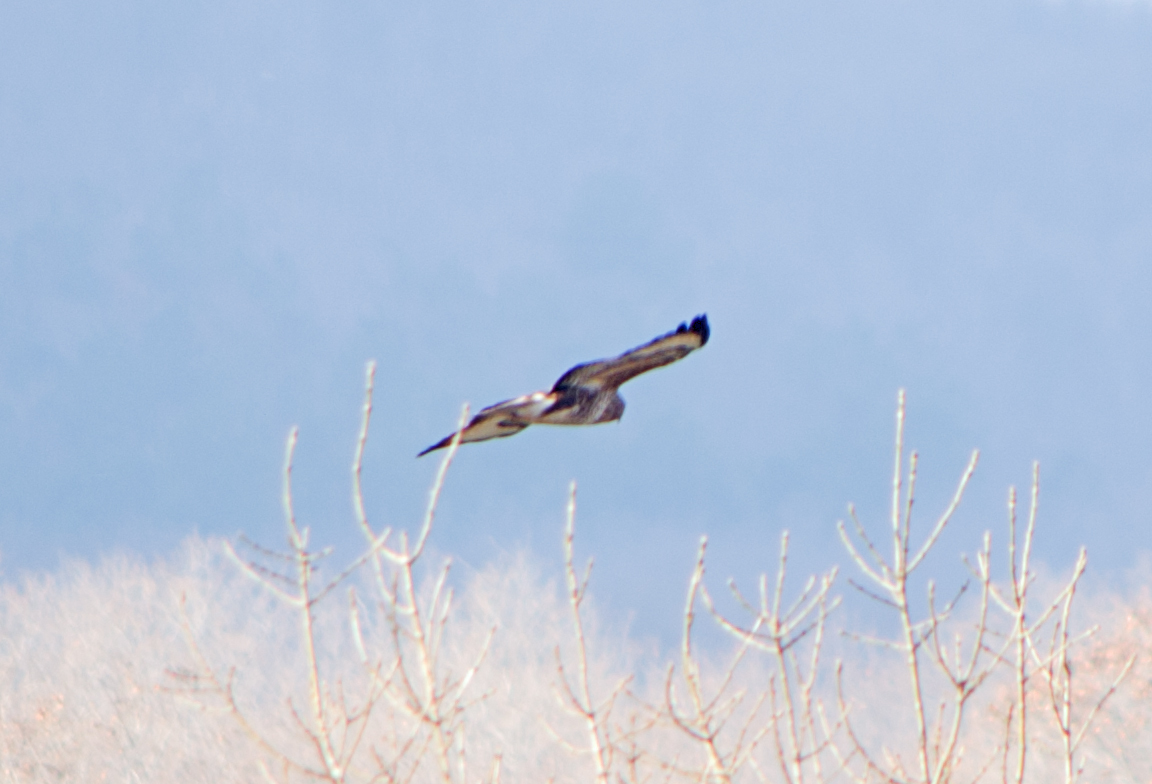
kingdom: Animalia
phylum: Chordata
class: Aves
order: Accipitriformes
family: Accipitridae
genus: Buteo
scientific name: Buteo buteo
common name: Common buzzard
